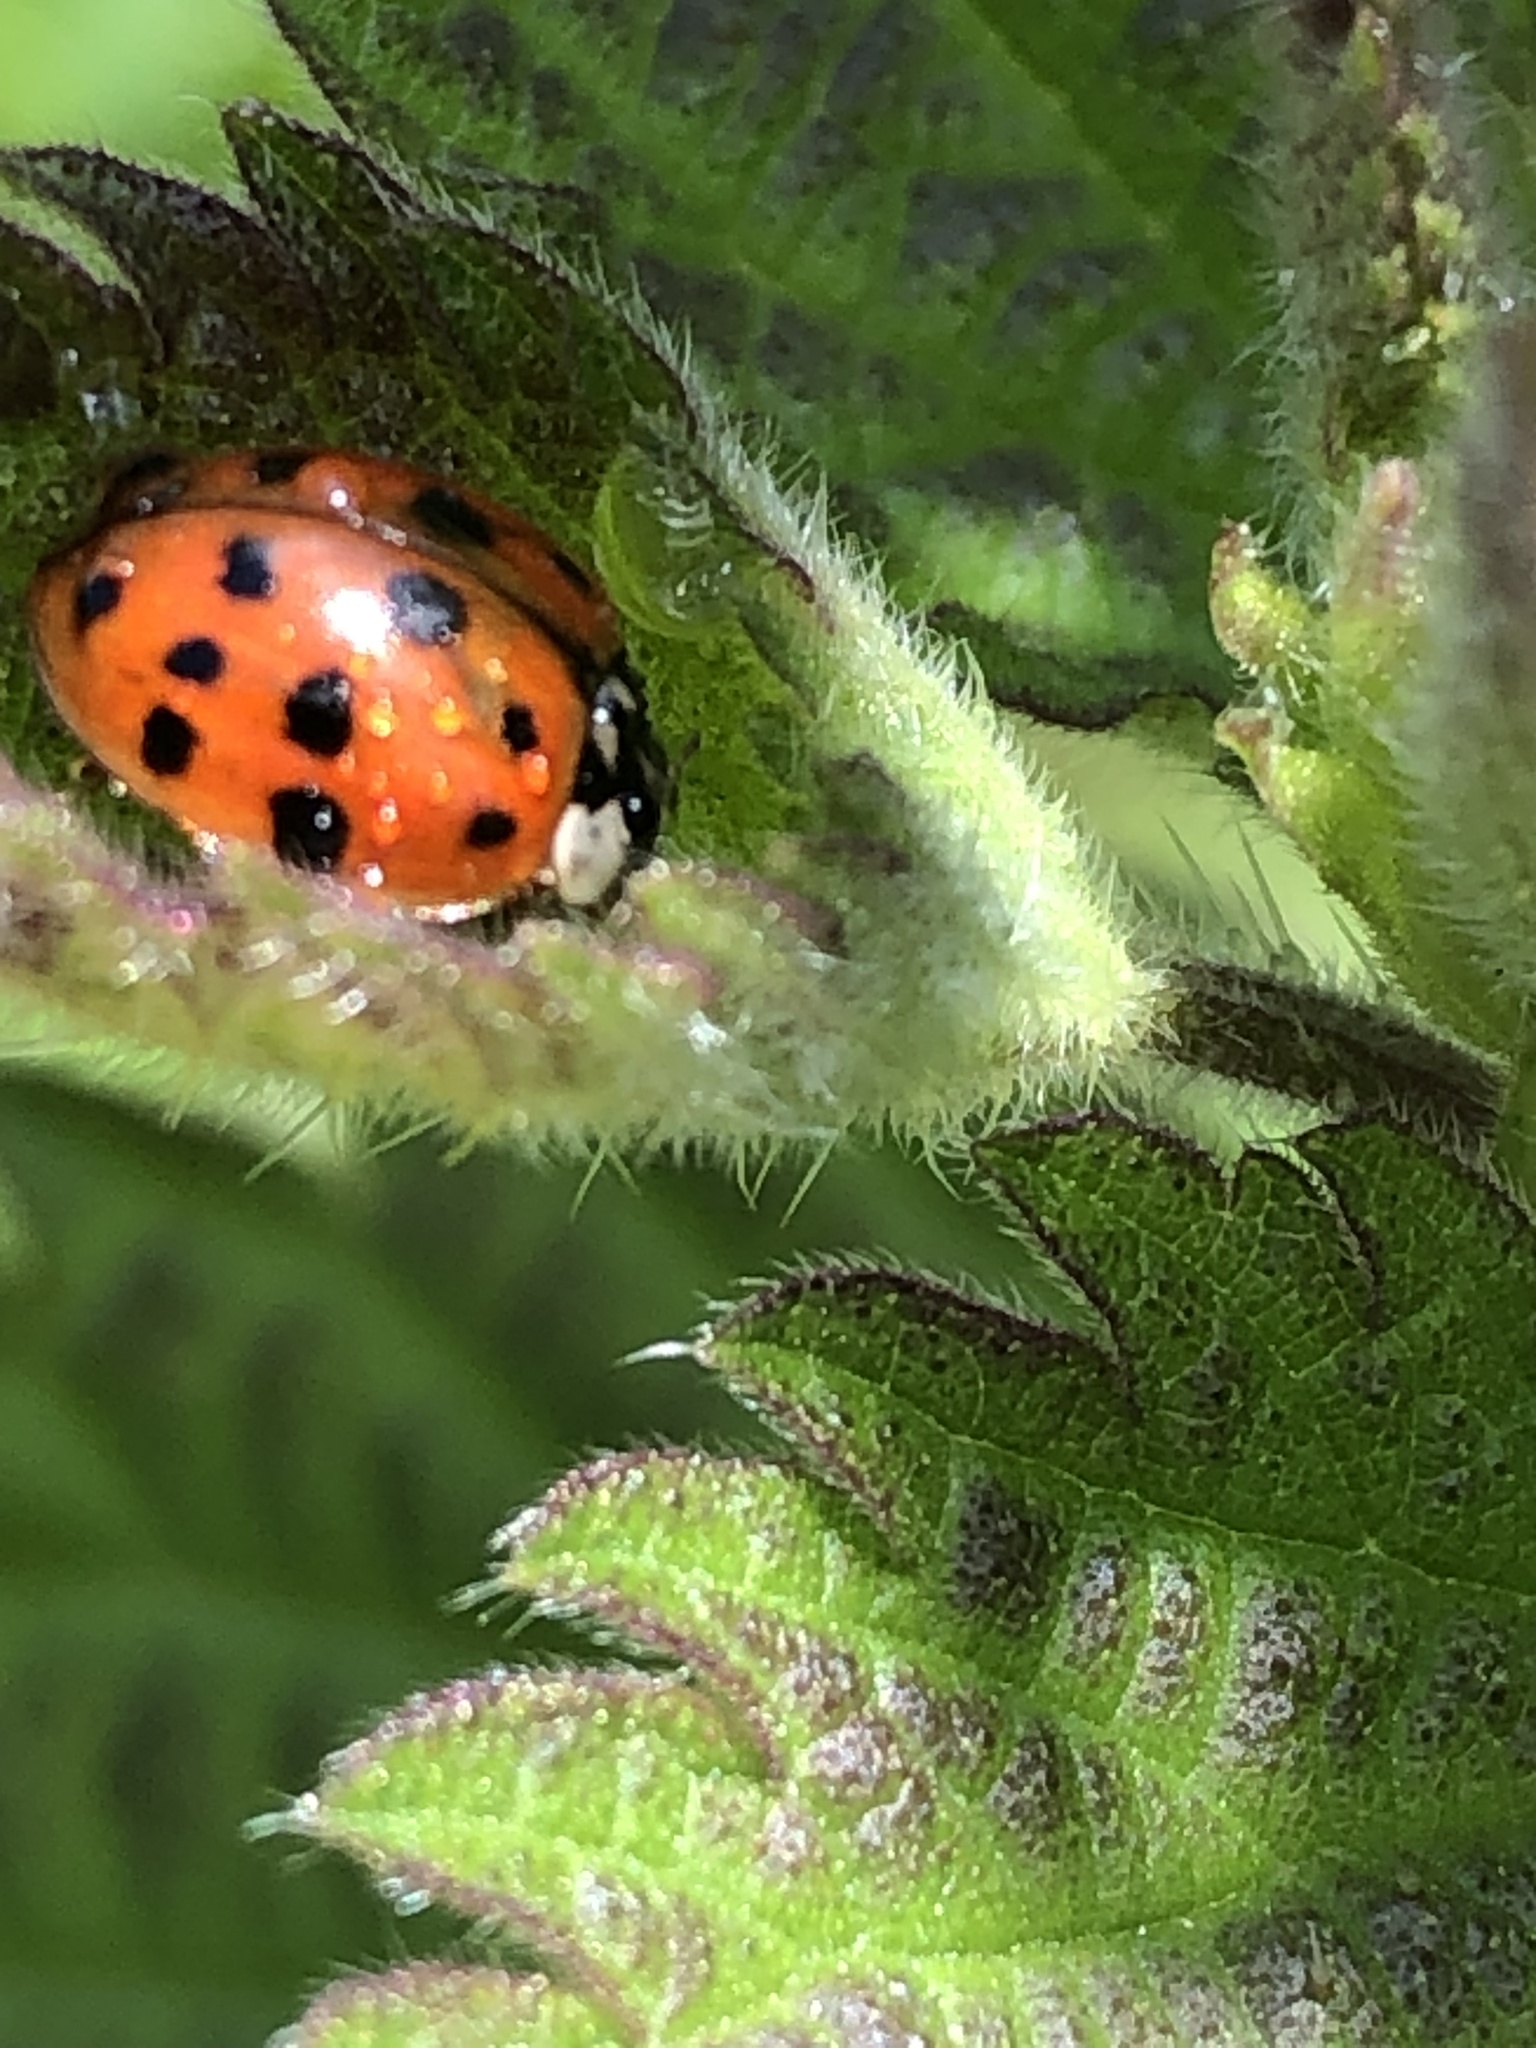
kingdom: Animalia
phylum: Arthropoda
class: Insecta
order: Coleoptera
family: Coccinellidae
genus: Harmonia
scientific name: Harmonia axyridis
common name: Harlequin ladybird
